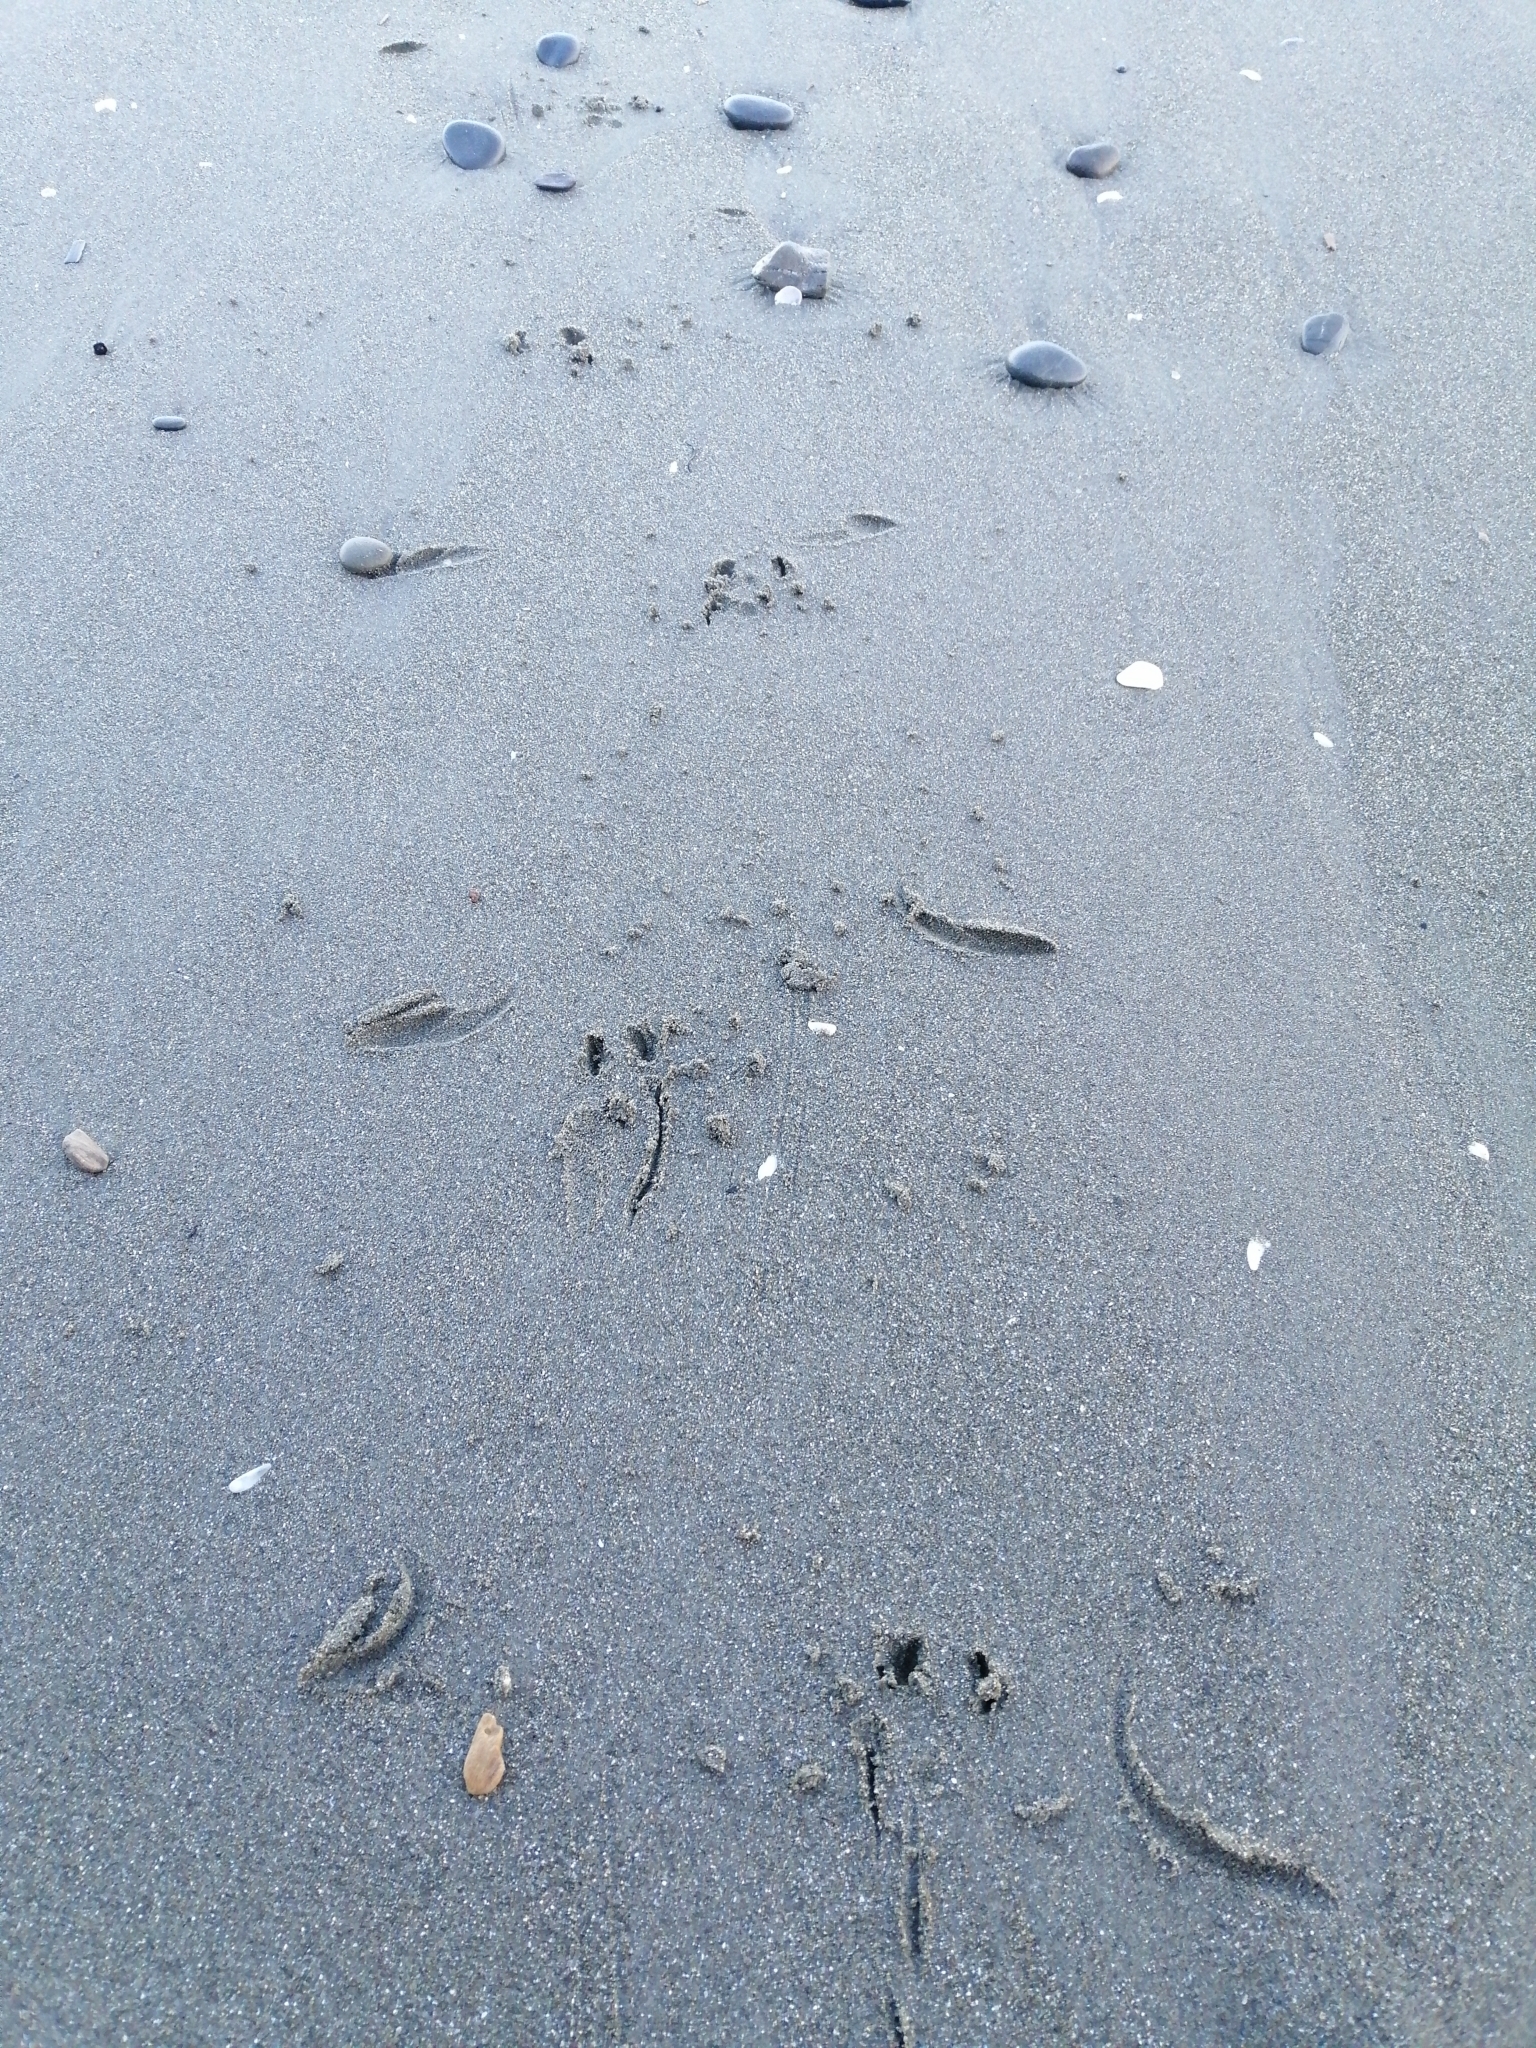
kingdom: Animalia
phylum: Chordata
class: Aves
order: Sphenisciformes
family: Spheniscidae
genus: Eudyptula
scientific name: Eudyptula minor
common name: Little penguin
